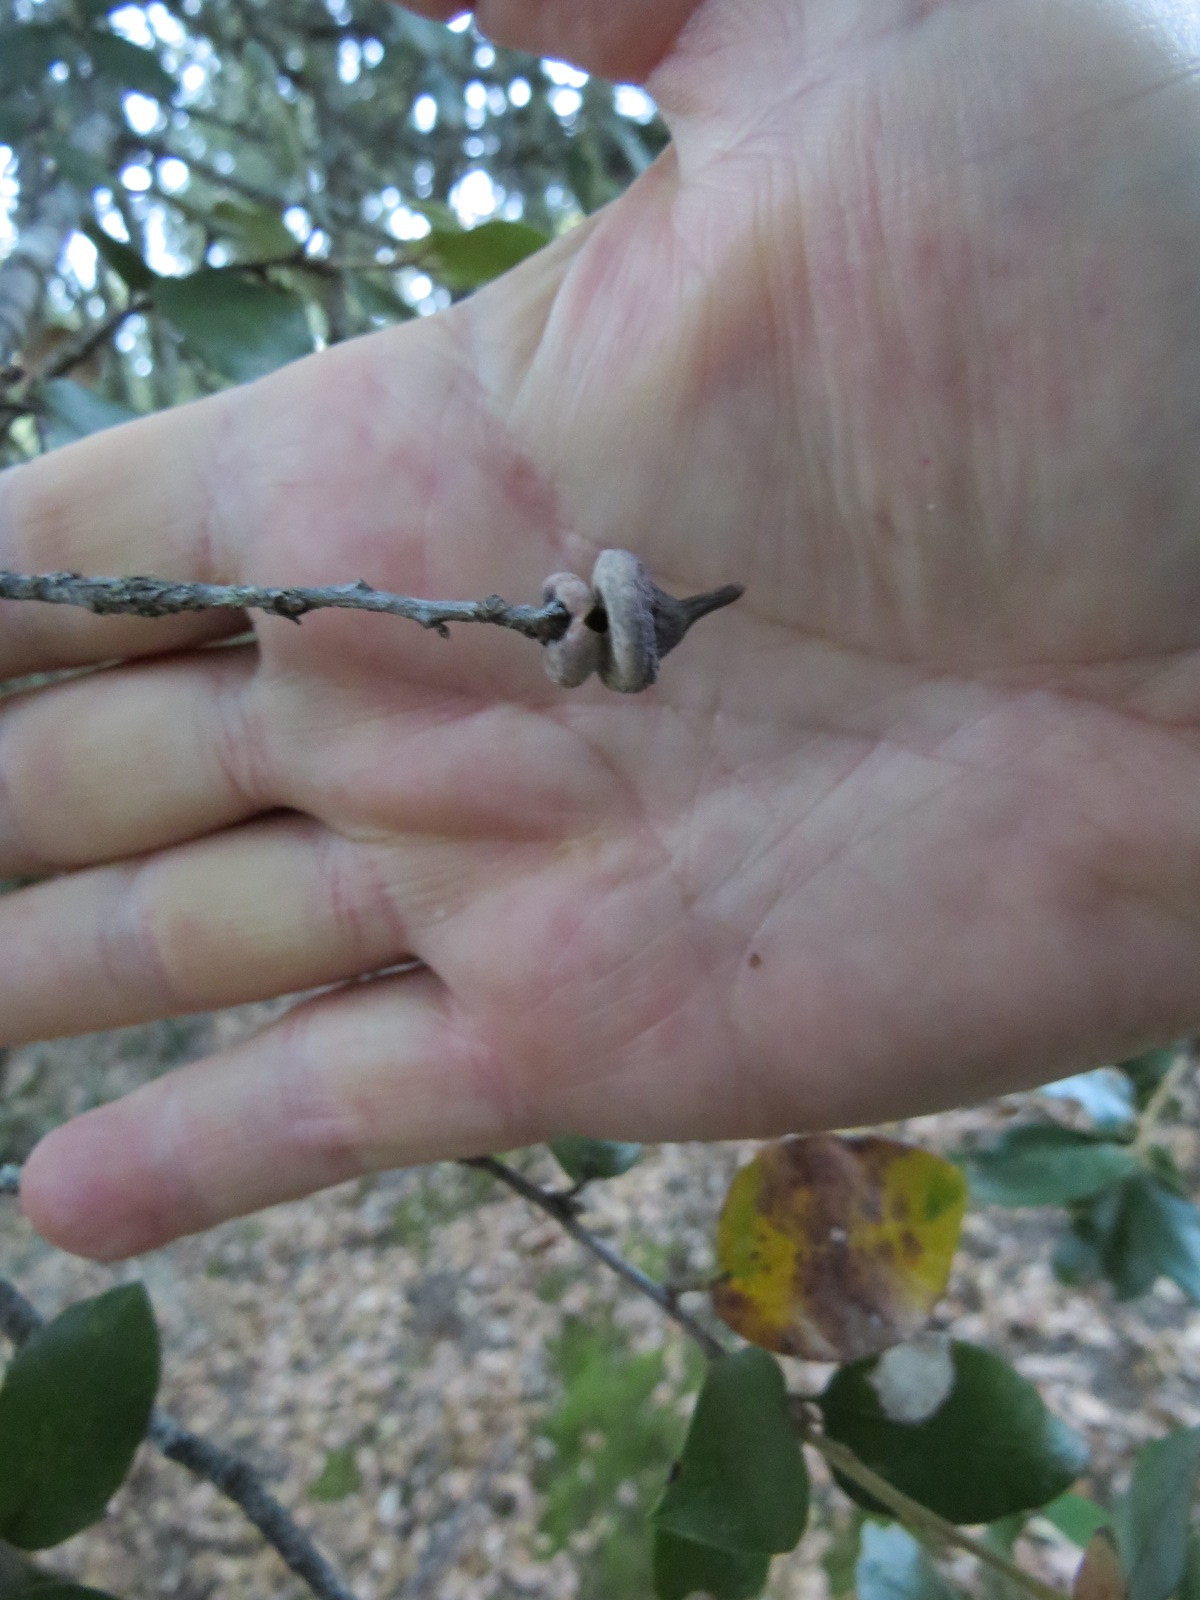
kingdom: Animalia
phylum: Arthropoda
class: Insecta
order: Hymenoptera
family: Cynipidae
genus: Heteroecus
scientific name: Heteroecus
